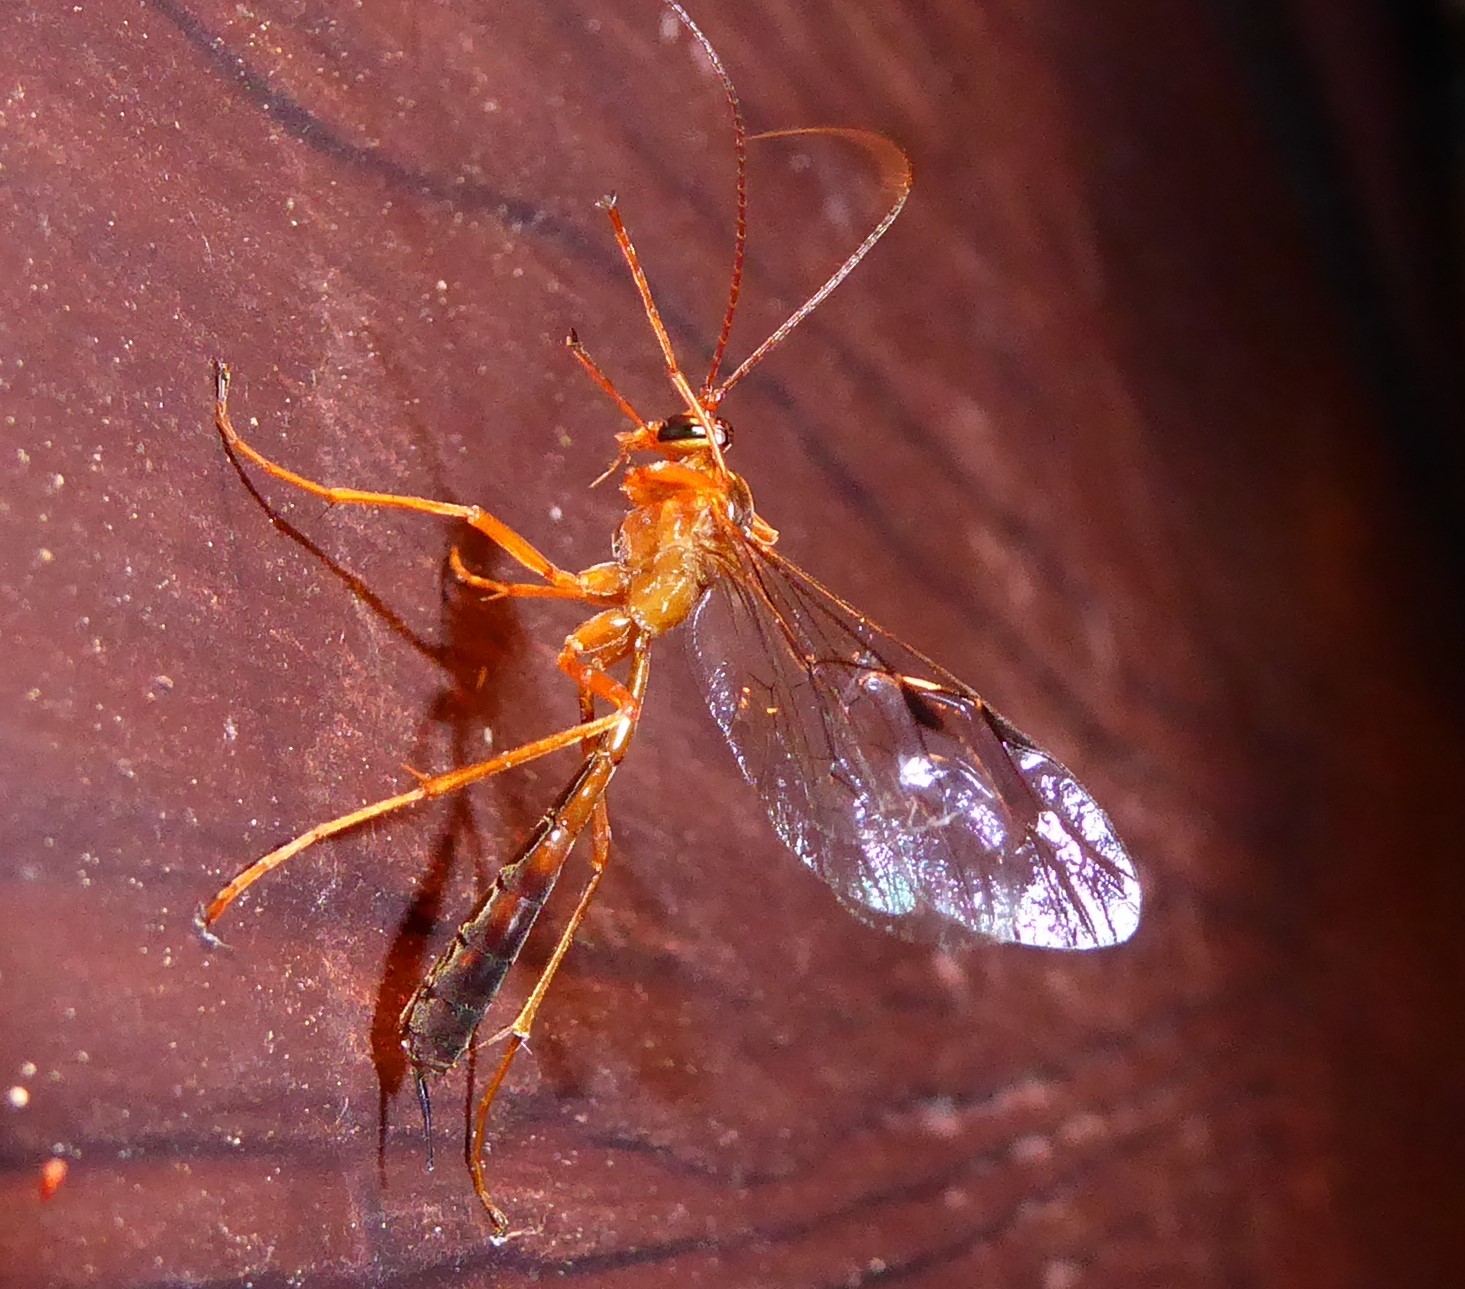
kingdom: Animalia
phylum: Arthropoda
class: Insecta
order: Hymenoptera
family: Ichneumonidae
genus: Netelia
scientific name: Netelia ephippiata
